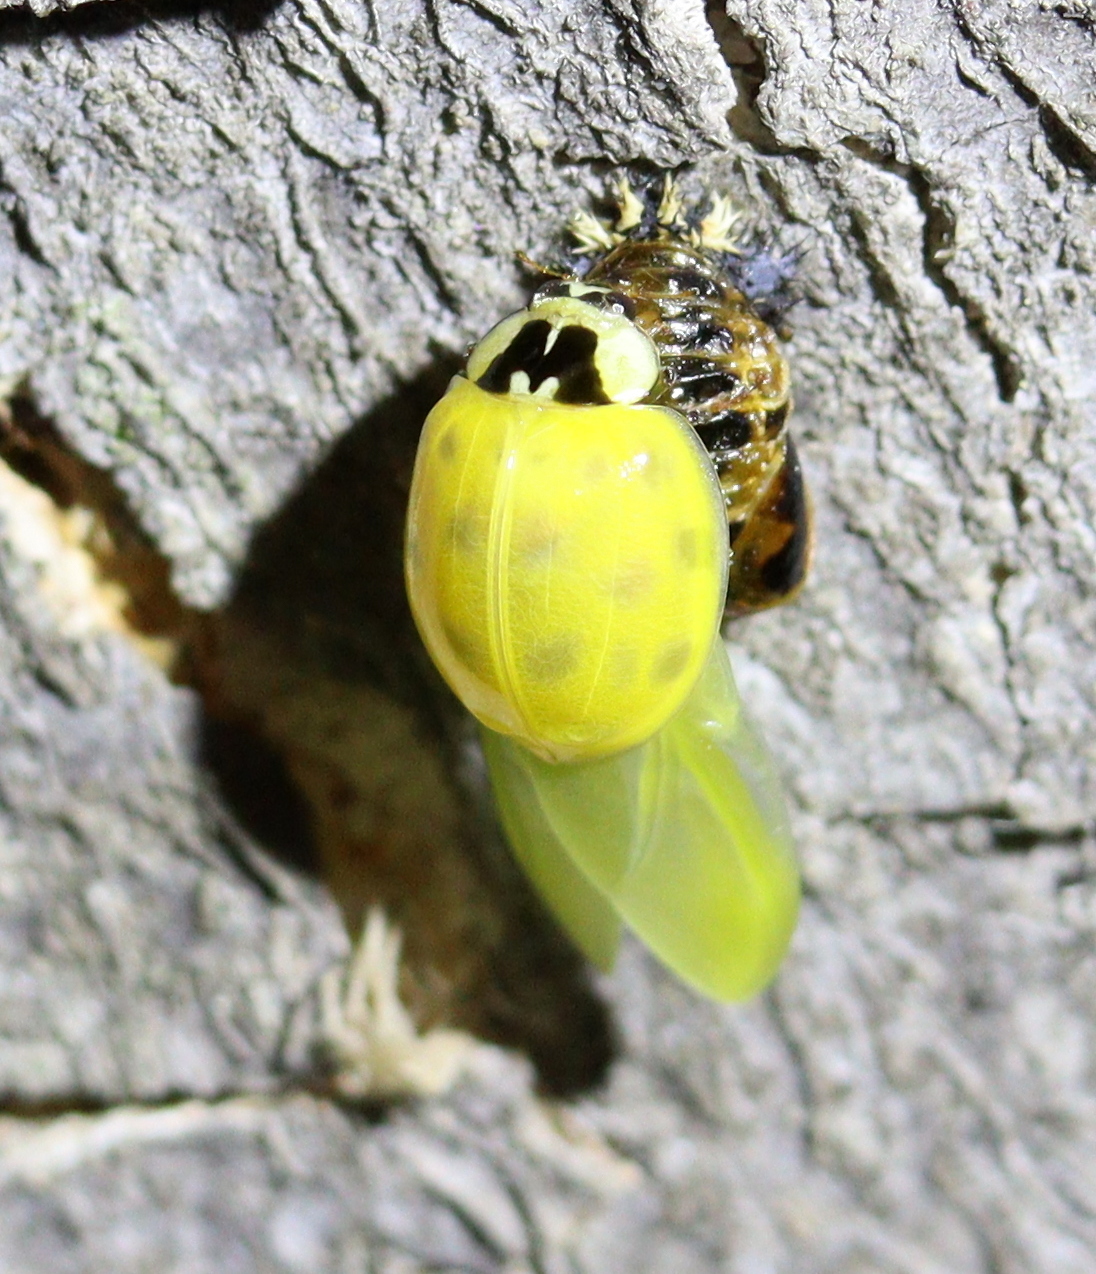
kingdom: Animalia
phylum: Arthropoda
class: Insecta
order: Coleoptera
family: Coccinellidae
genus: Harmonia
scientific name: Harmonia axyridis
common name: Harlequin ladybird
